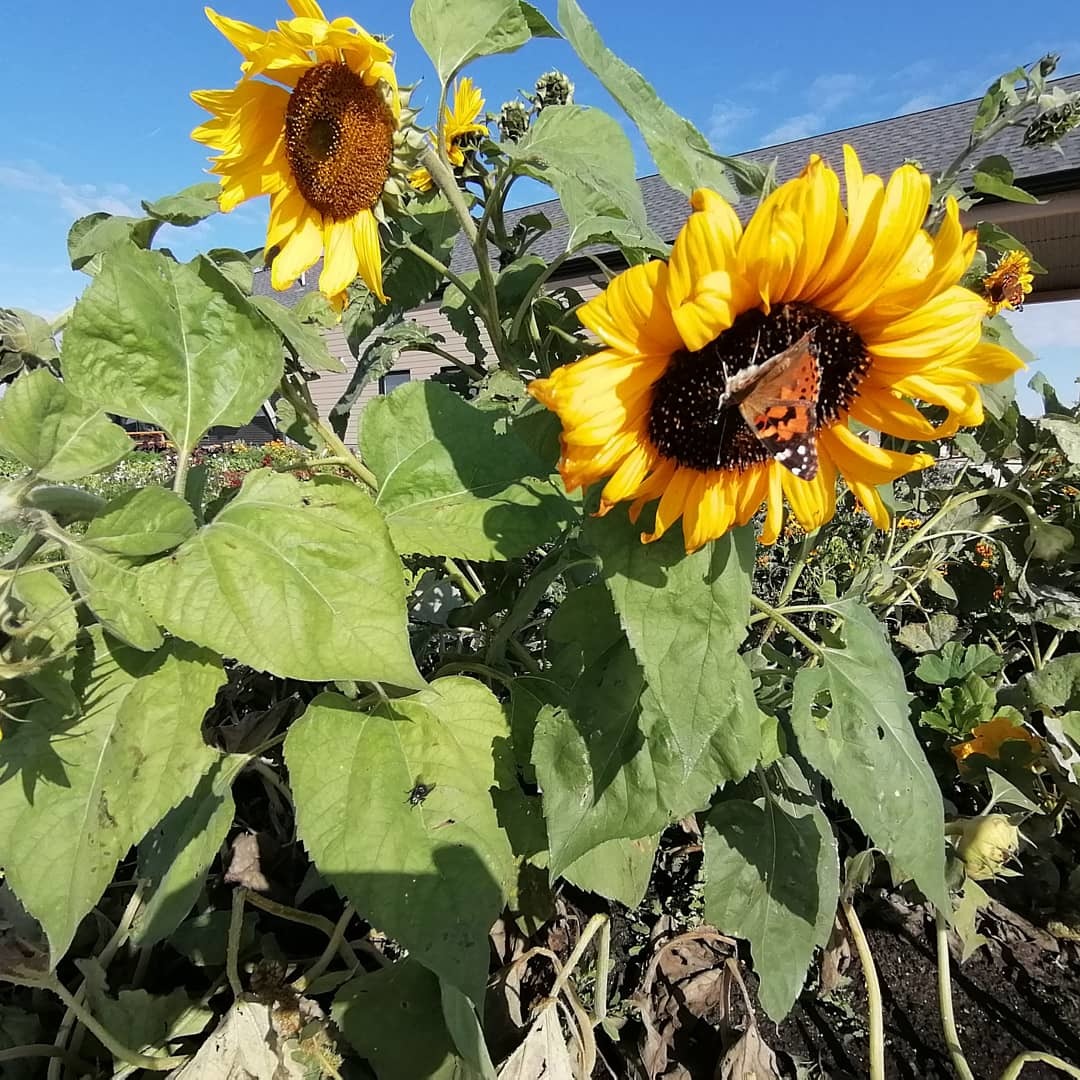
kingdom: Animalia
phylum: Arthropoda
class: Insecta
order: Lepidoptera
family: Nymphalidae
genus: Vanessa
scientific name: Vanessa cardui
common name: Painted lady
